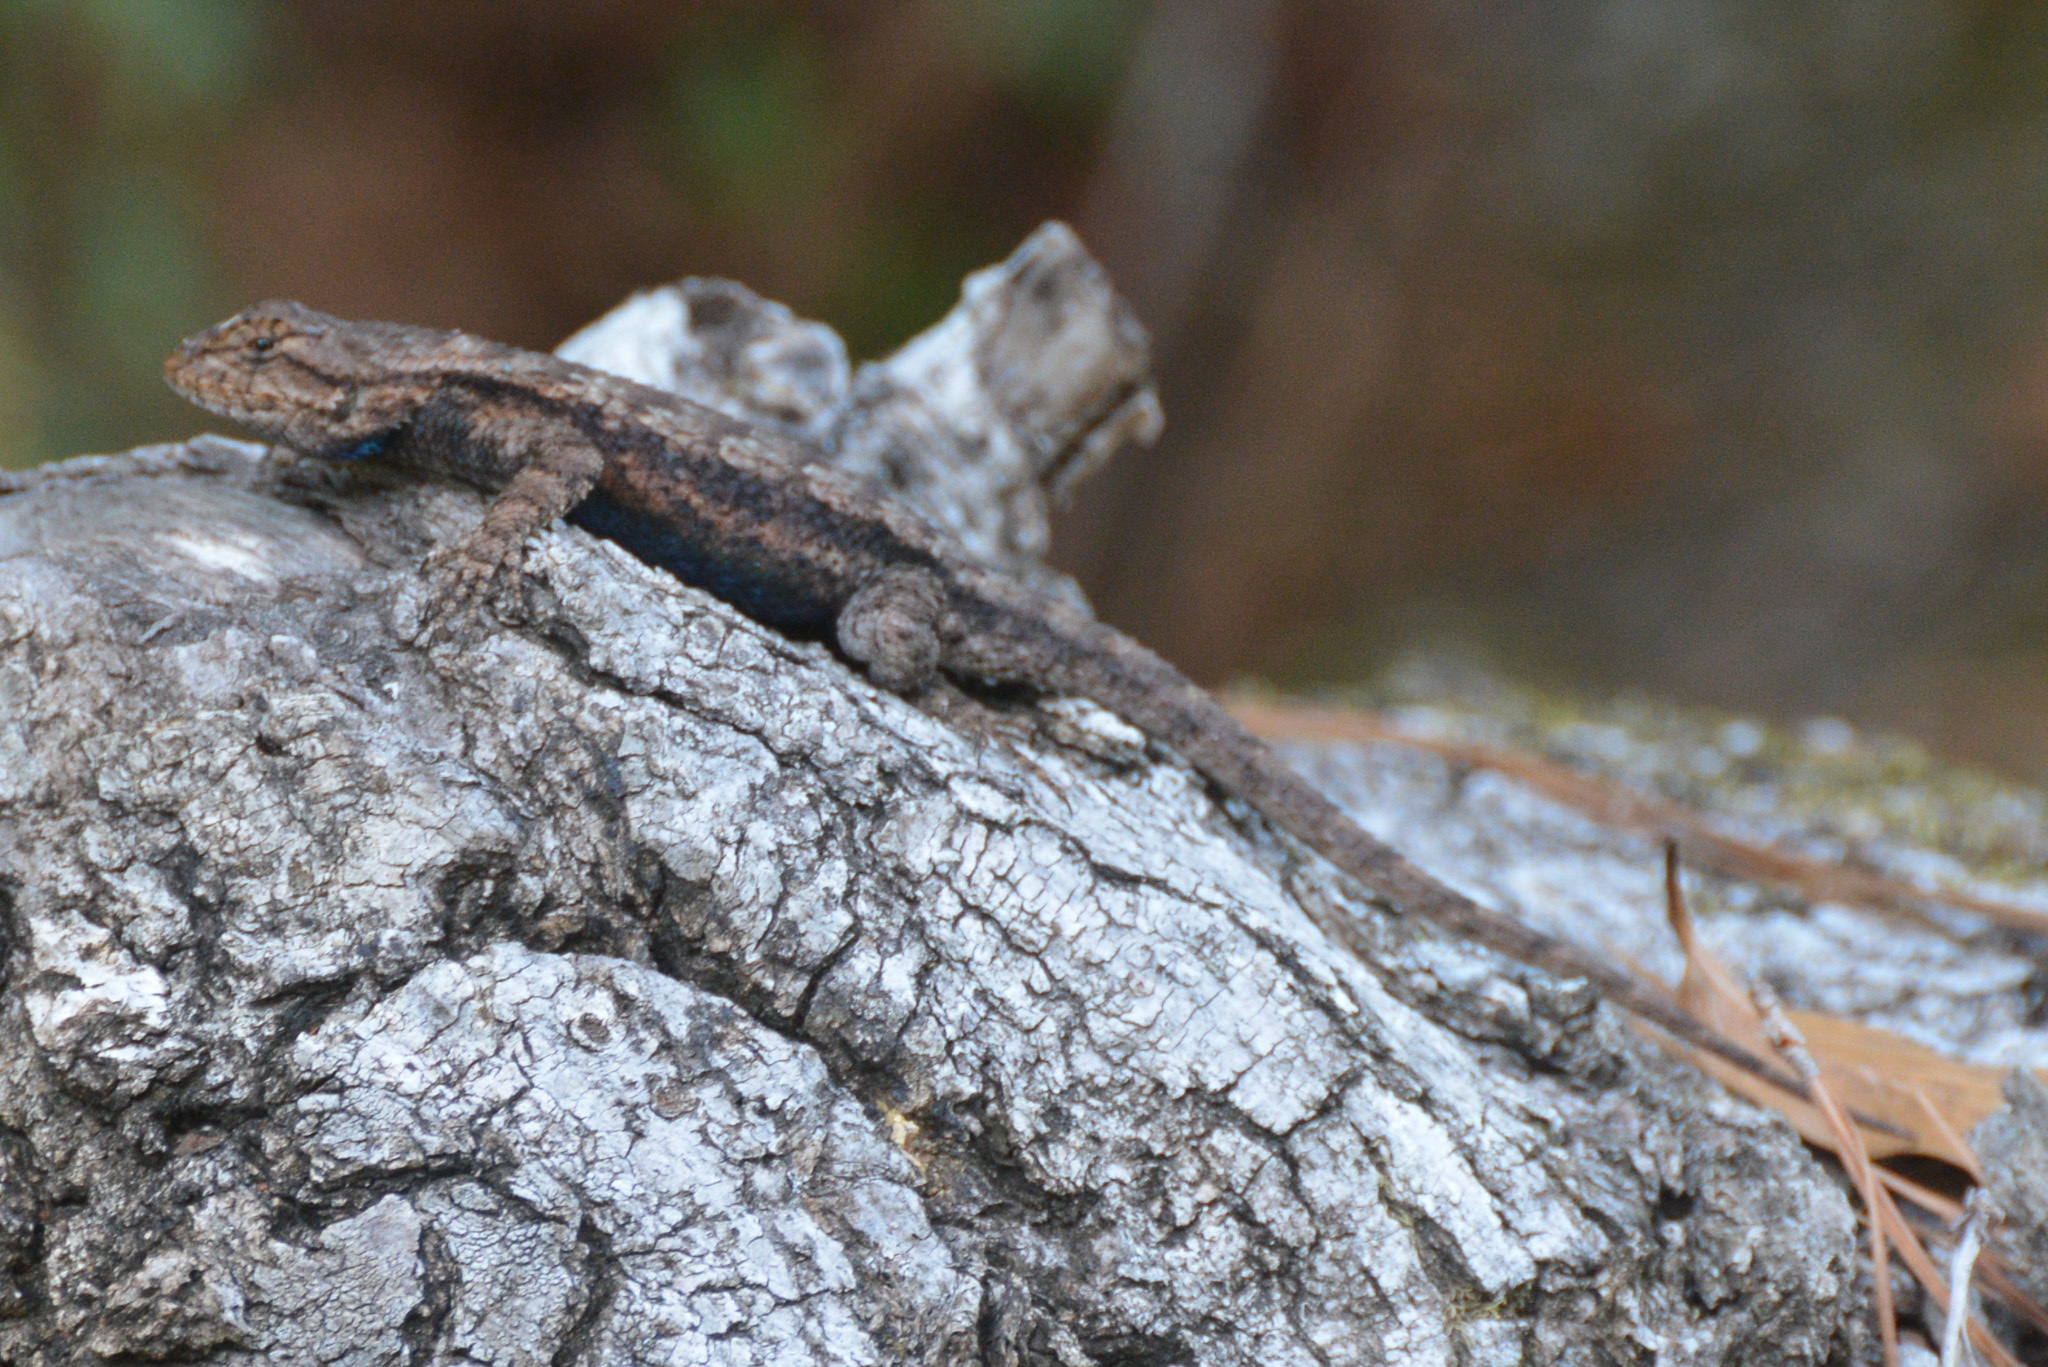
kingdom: Animalia
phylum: Chordata
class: Squamata
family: Phrynosomatidae
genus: Sceloporus
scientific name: Sceloporus consobrinus
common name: Southern prairie lizard
